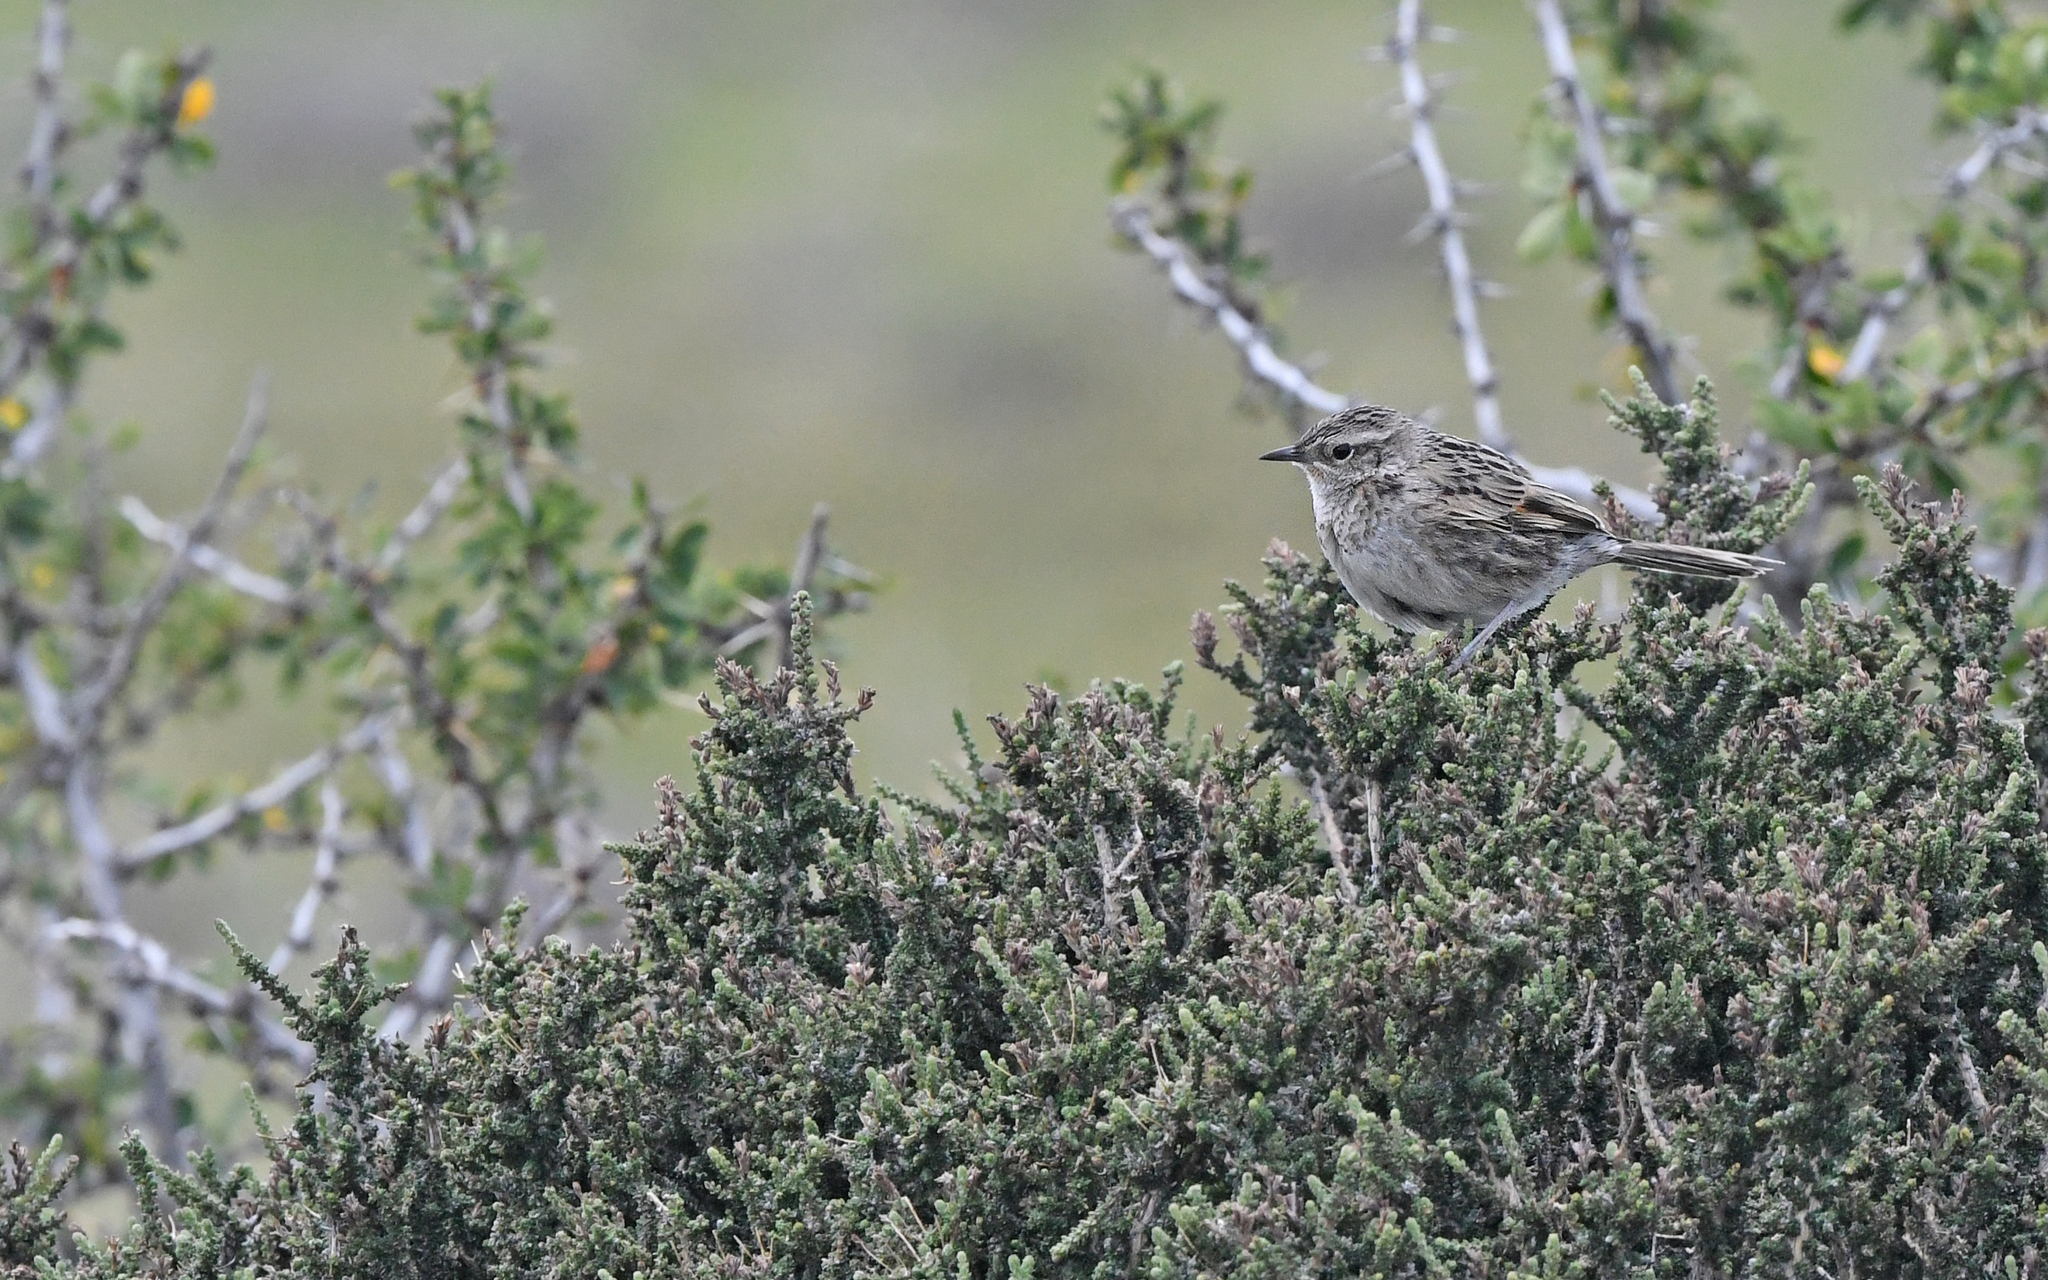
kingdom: Animalia
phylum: Chordata
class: Aves
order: Passeriformes
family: Furnariidae
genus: Asthenes
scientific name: Asthenes anthoides
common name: Austral canastero
